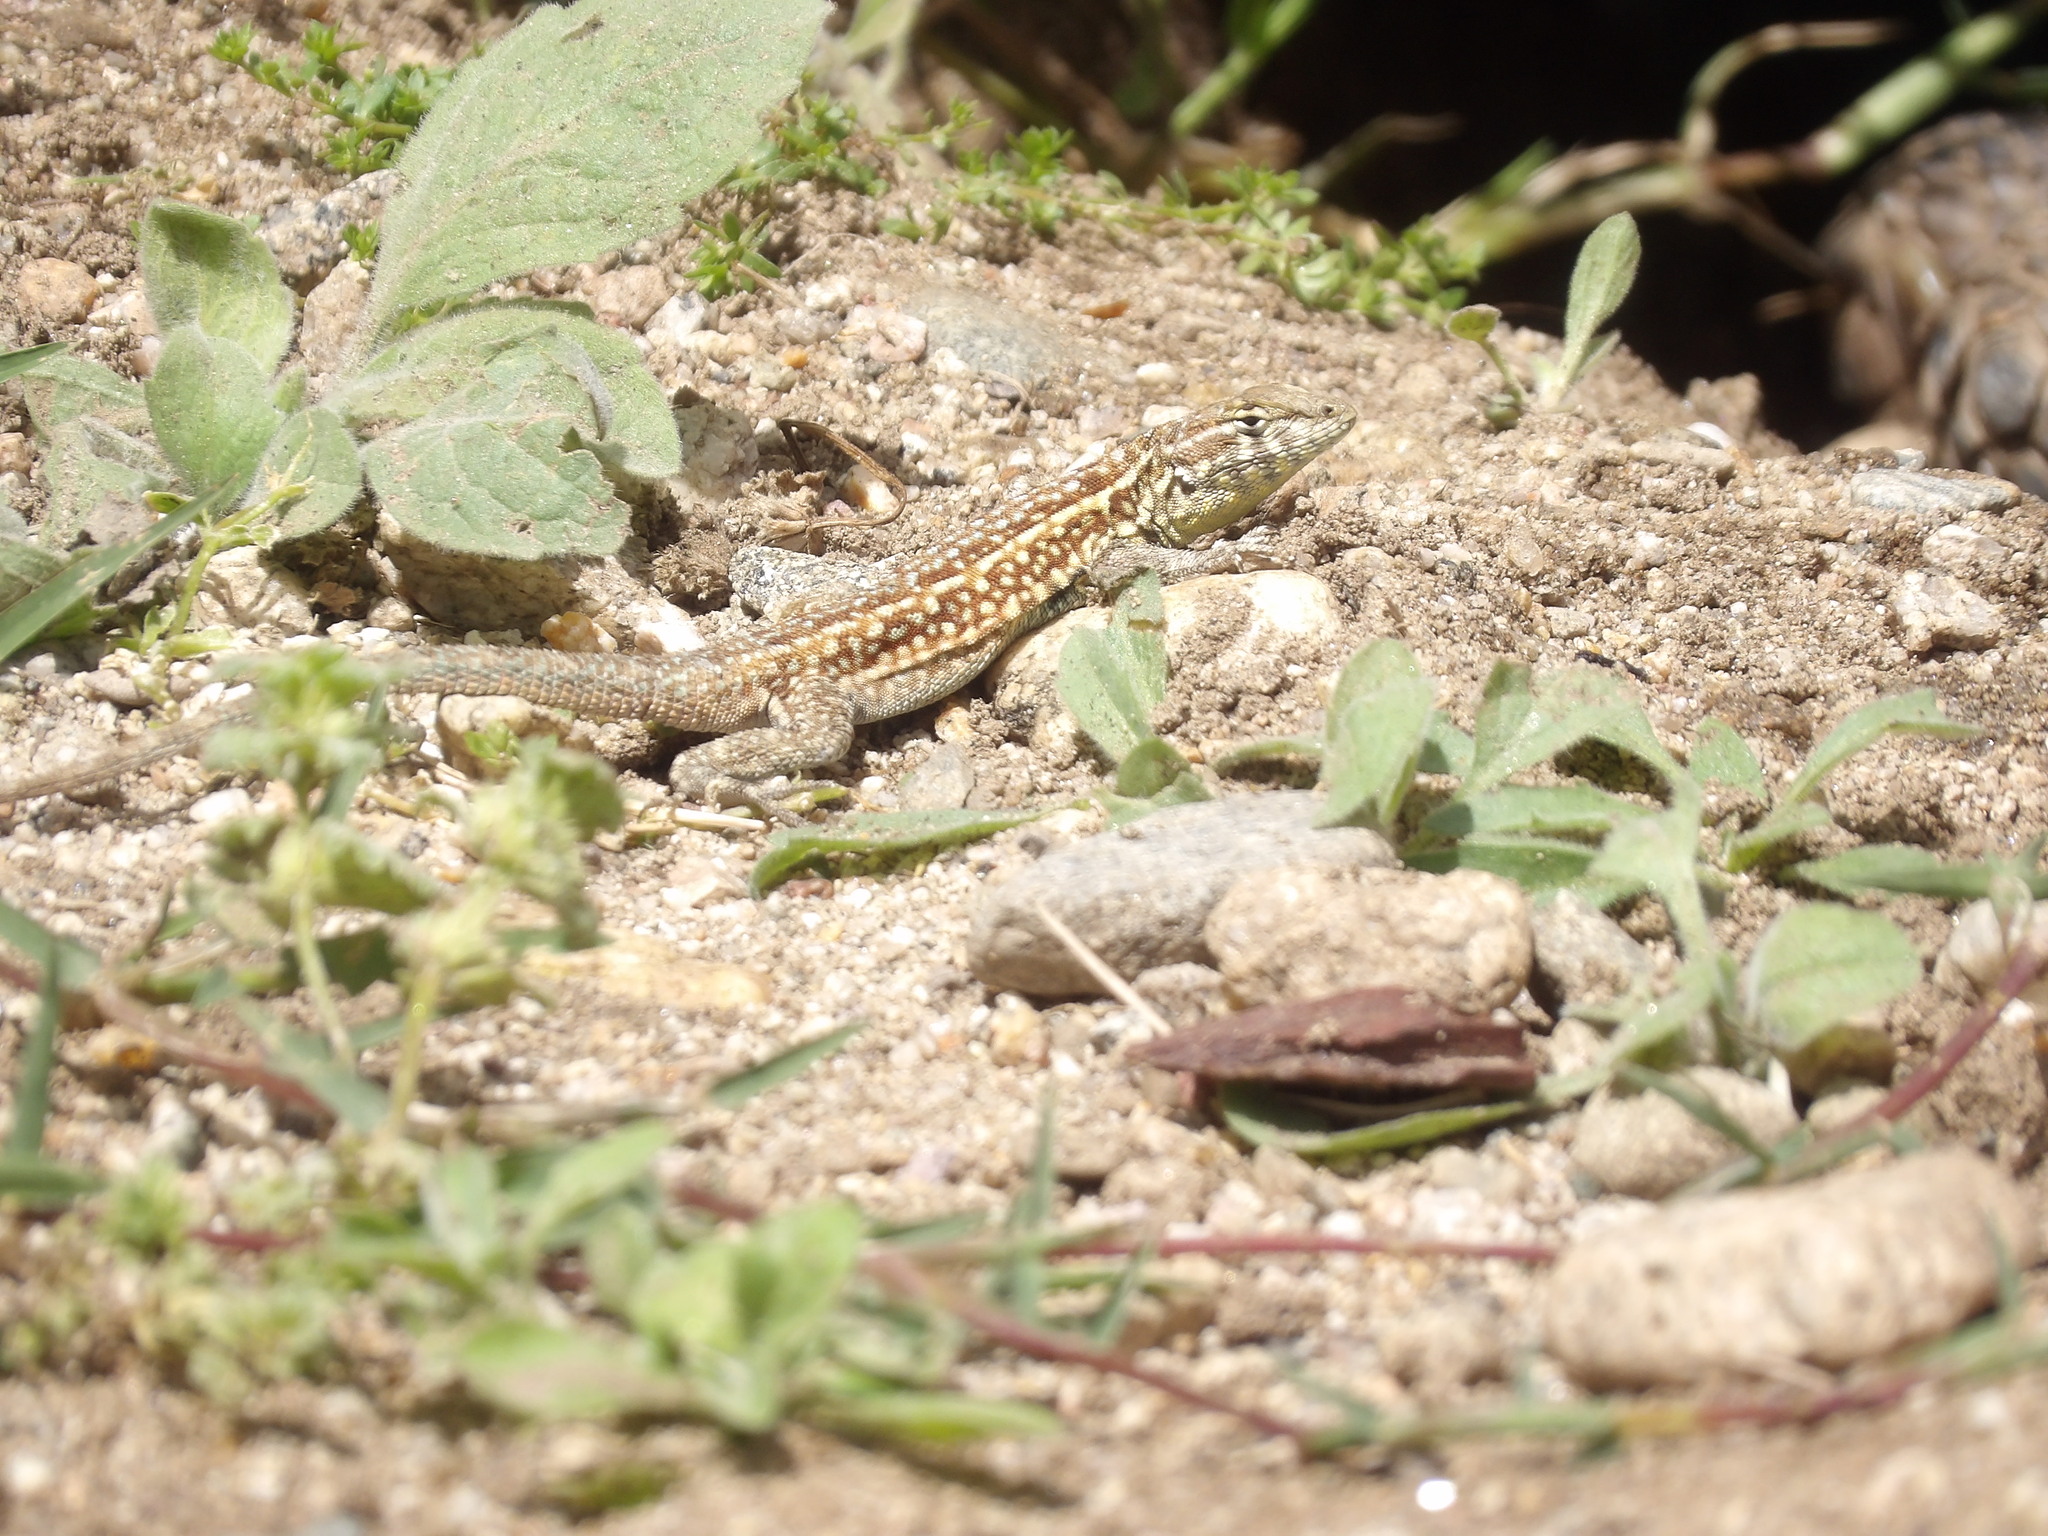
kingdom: Animalia
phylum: Chordata
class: Squamata
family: Phrynosomatidae
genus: Uta
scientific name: Uta stansburiana
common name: Side-blotched lizard
